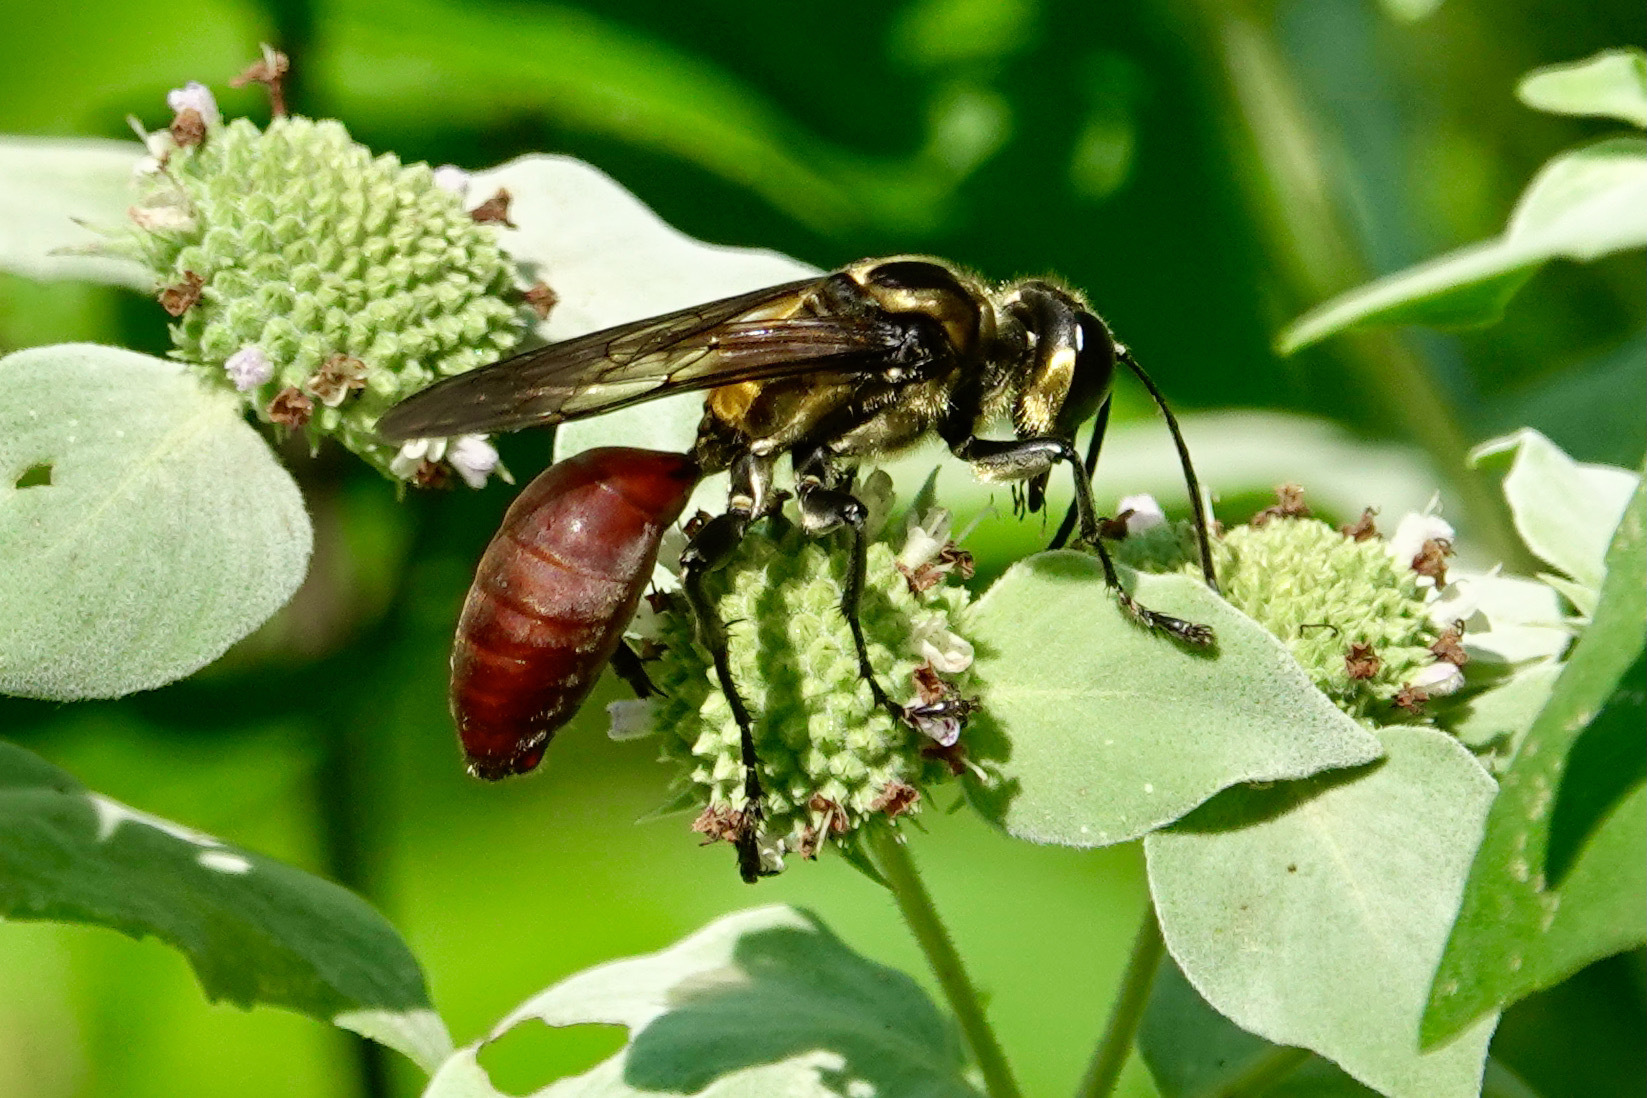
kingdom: Animalia
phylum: Arthropoda
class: Insecta
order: Hymenoptera
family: Sphecidae
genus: Sphex
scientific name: Sphex habenus
